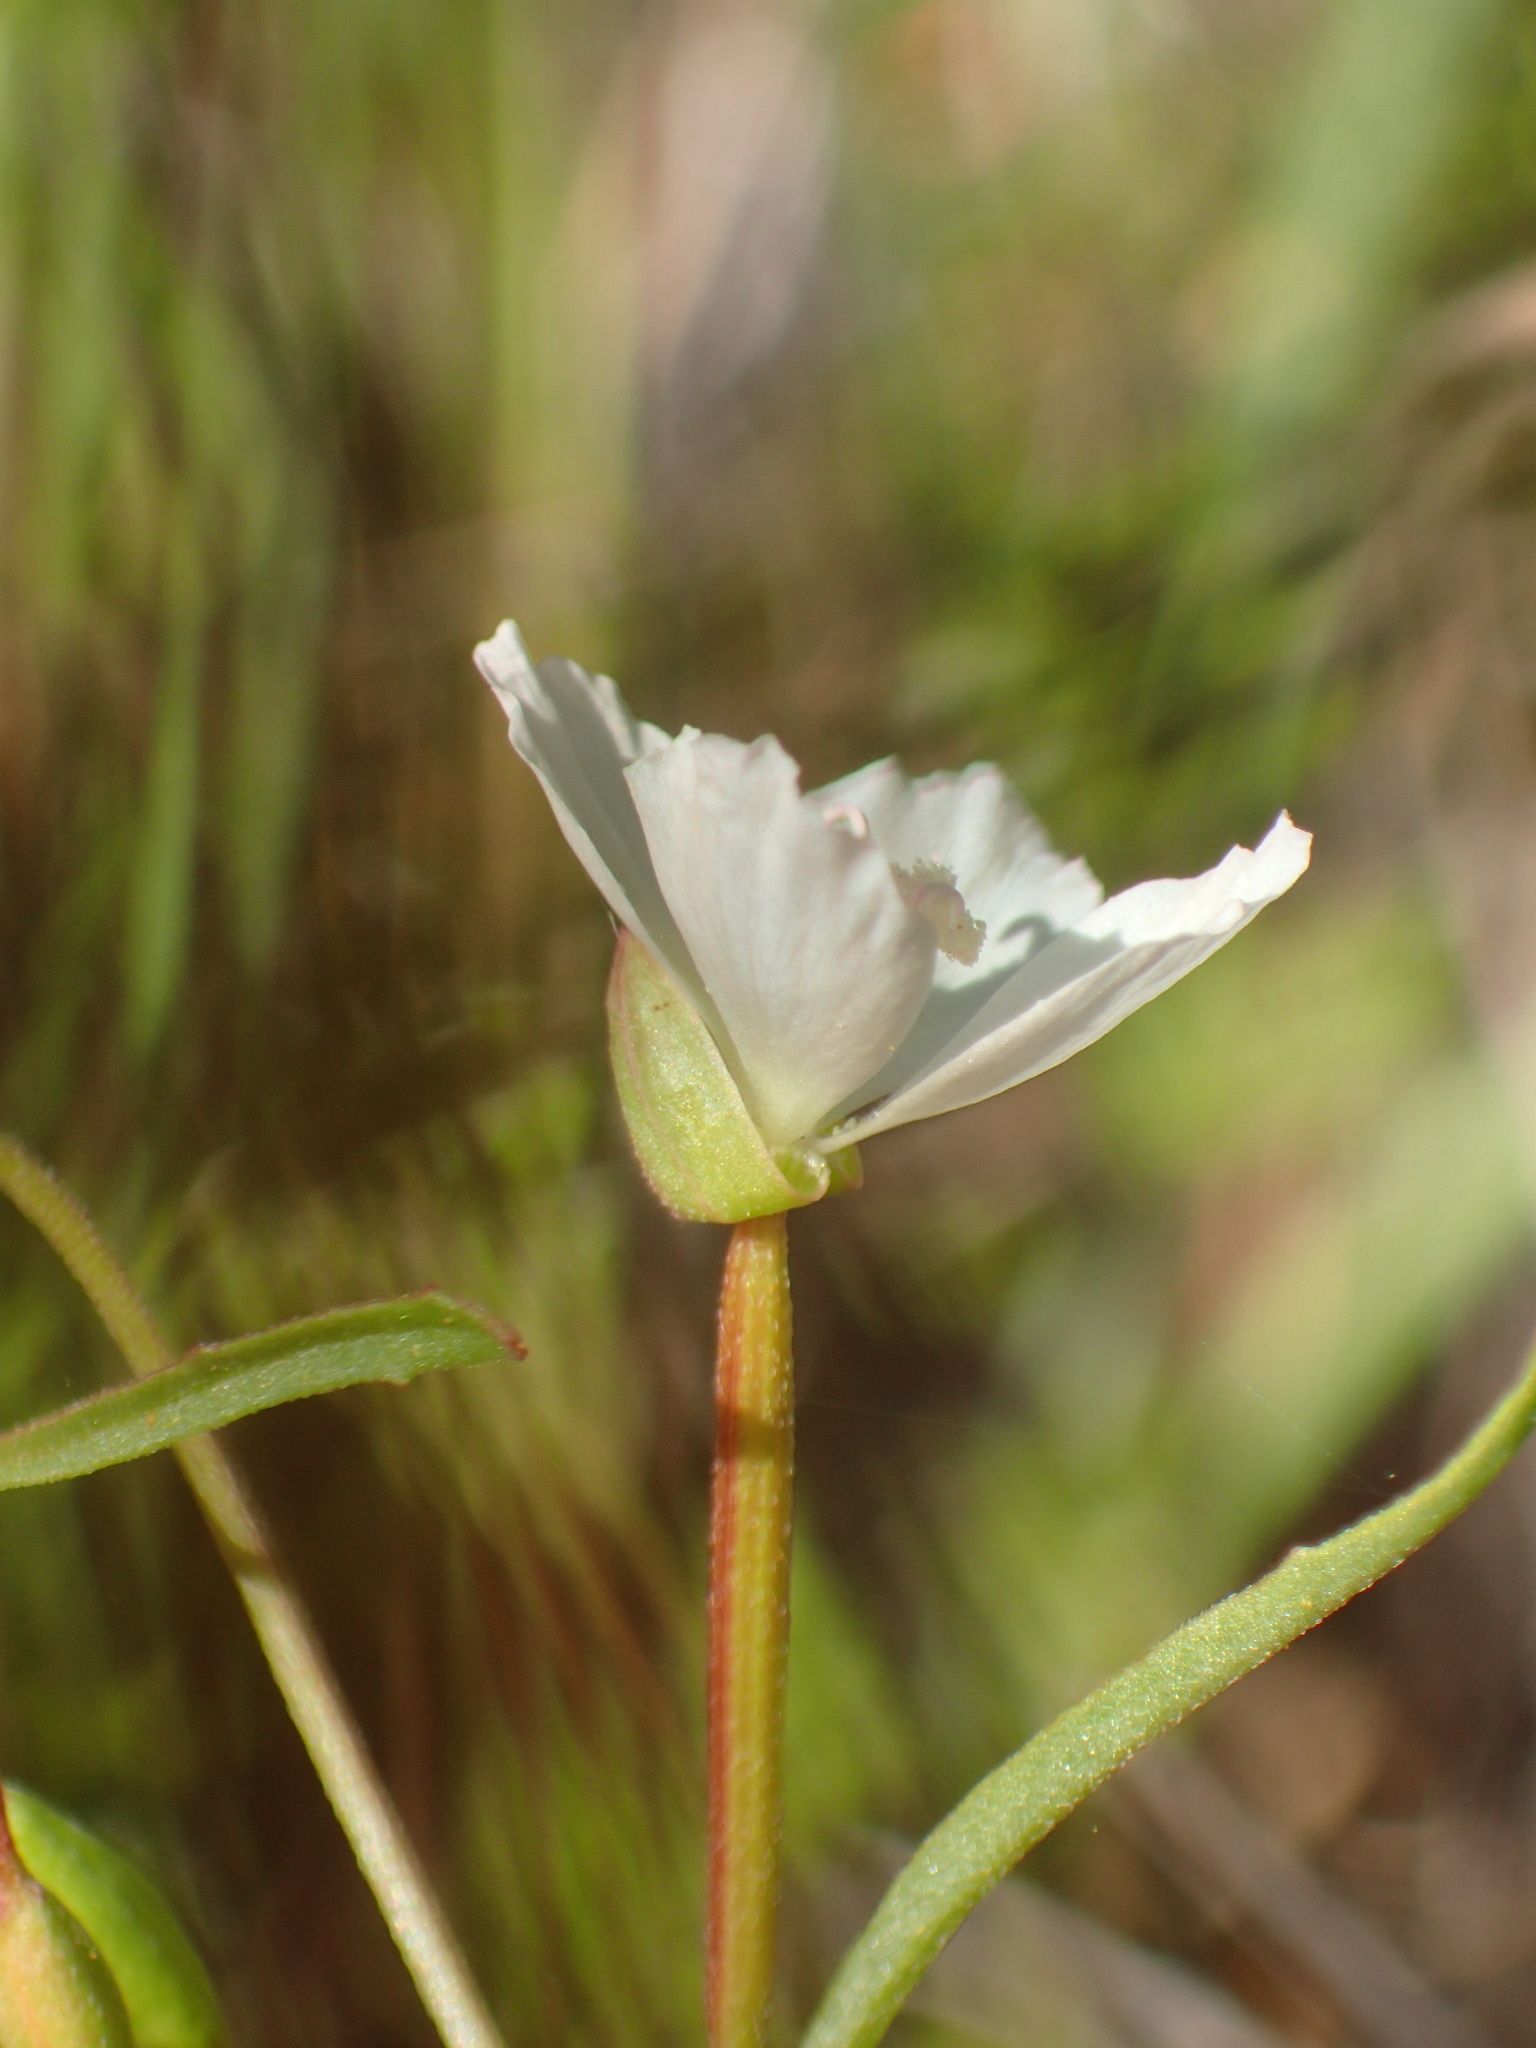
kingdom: Plantae
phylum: Tracheophyta
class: Magnoliopsida
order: Myrtales
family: Onagraceae
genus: Clarkia
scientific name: Clarkia epilobioides
